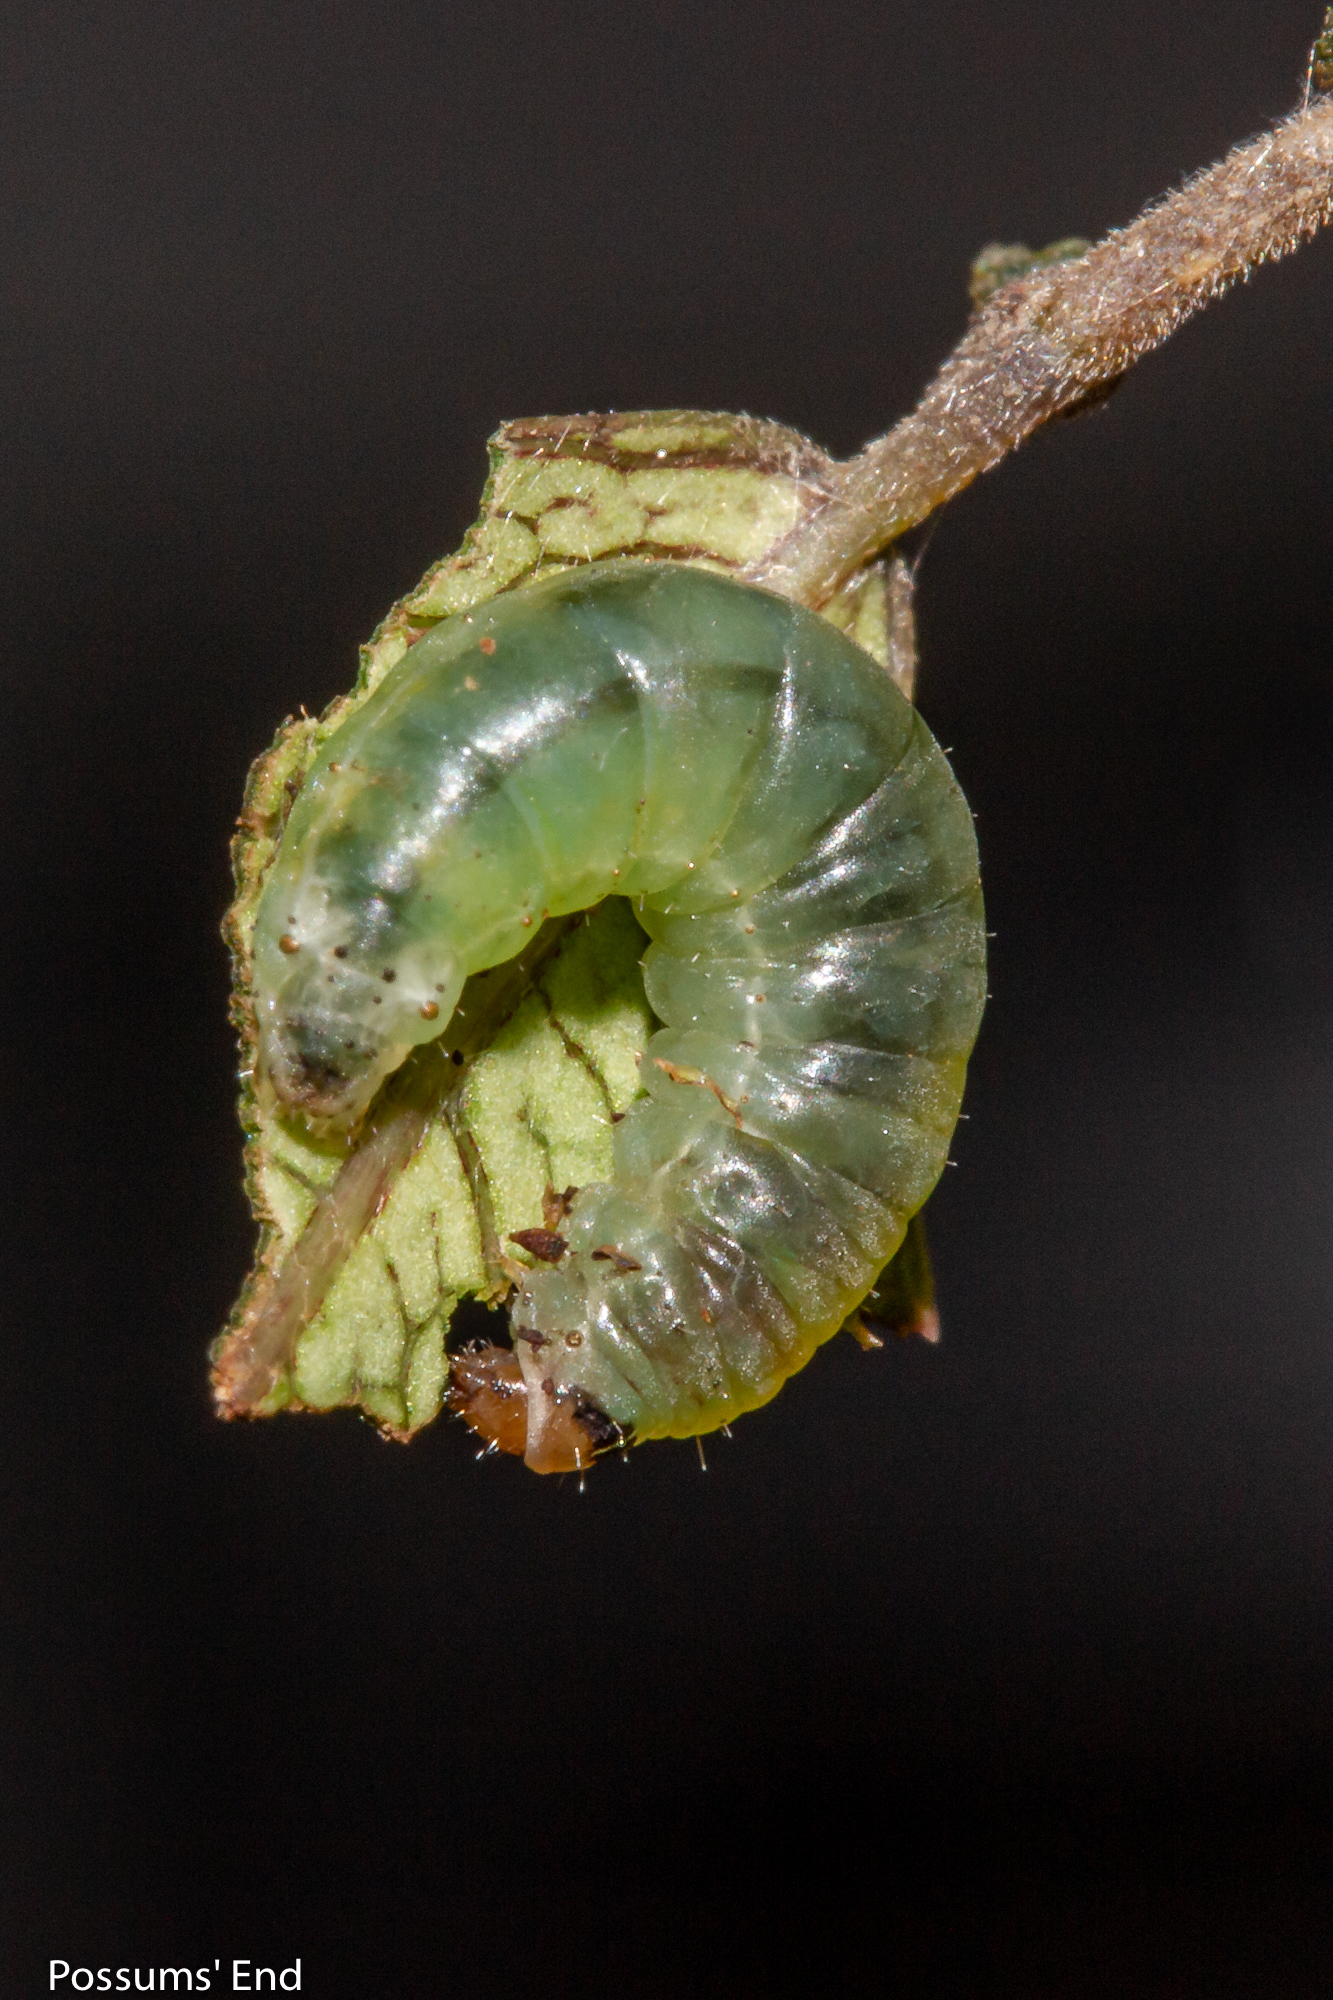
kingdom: Animalia
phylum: Arthropoda
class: Insecta
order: Lepidoptera
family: Copromorphidae
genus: Phycomorpha
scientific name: Phycomorpha metachrysa
